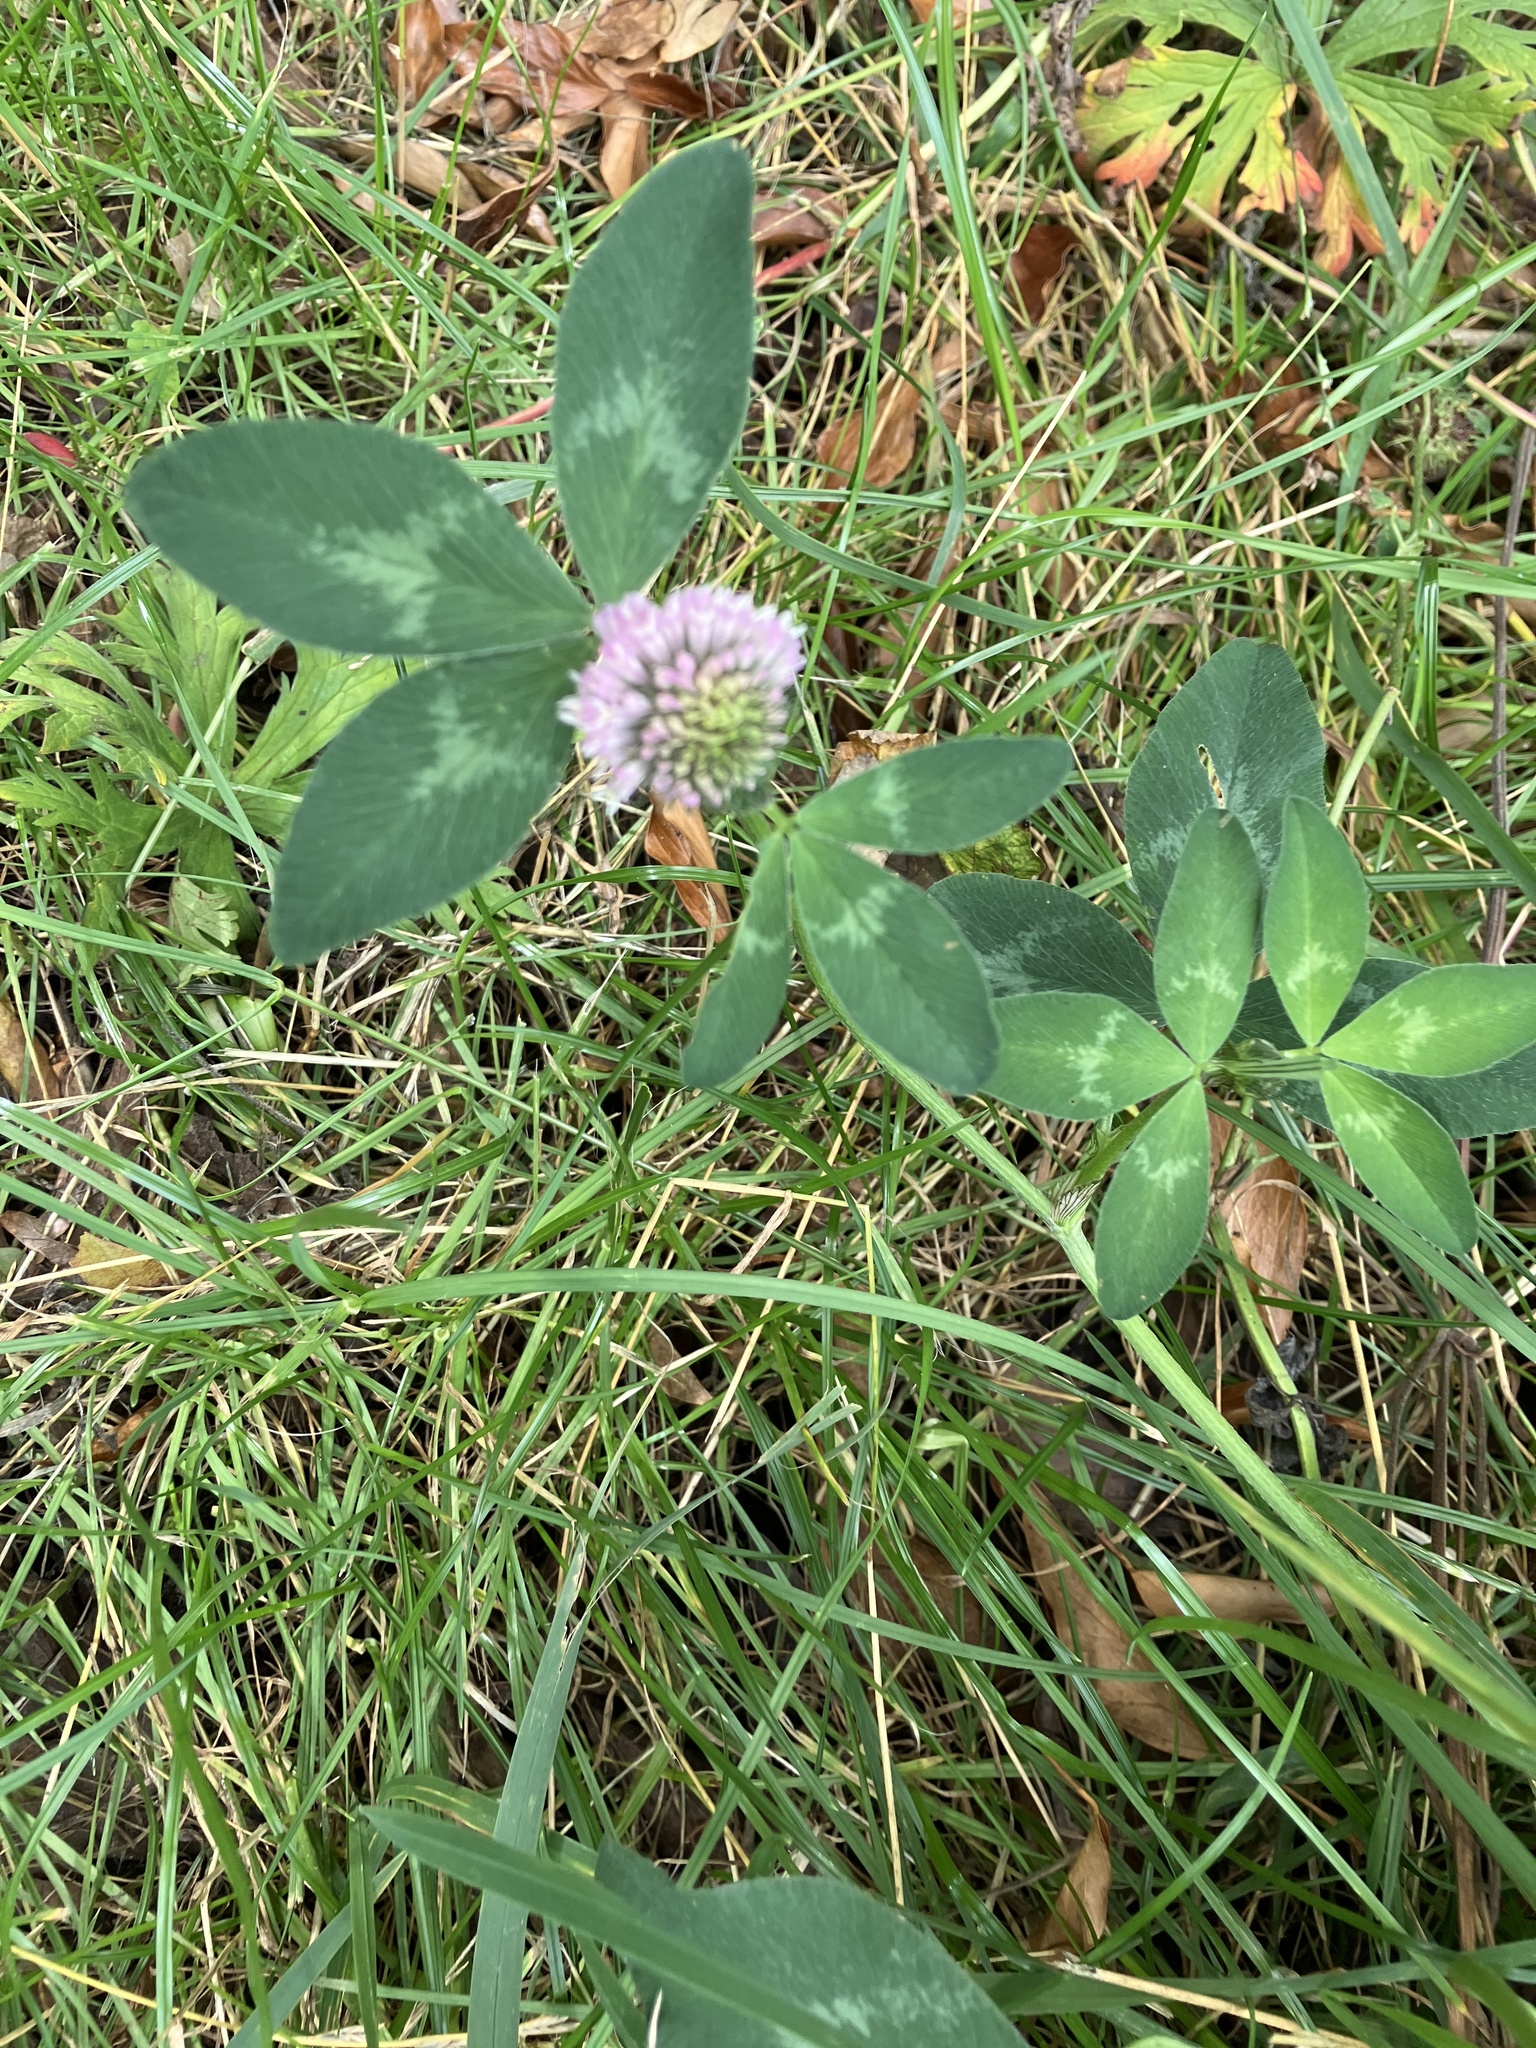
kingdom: Plantae
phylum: Tracheophyta
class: Magnoliopsida
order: Fabales
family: Fabaceae
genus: Trifolium
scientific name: Trifolium pratense
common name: Red clover
